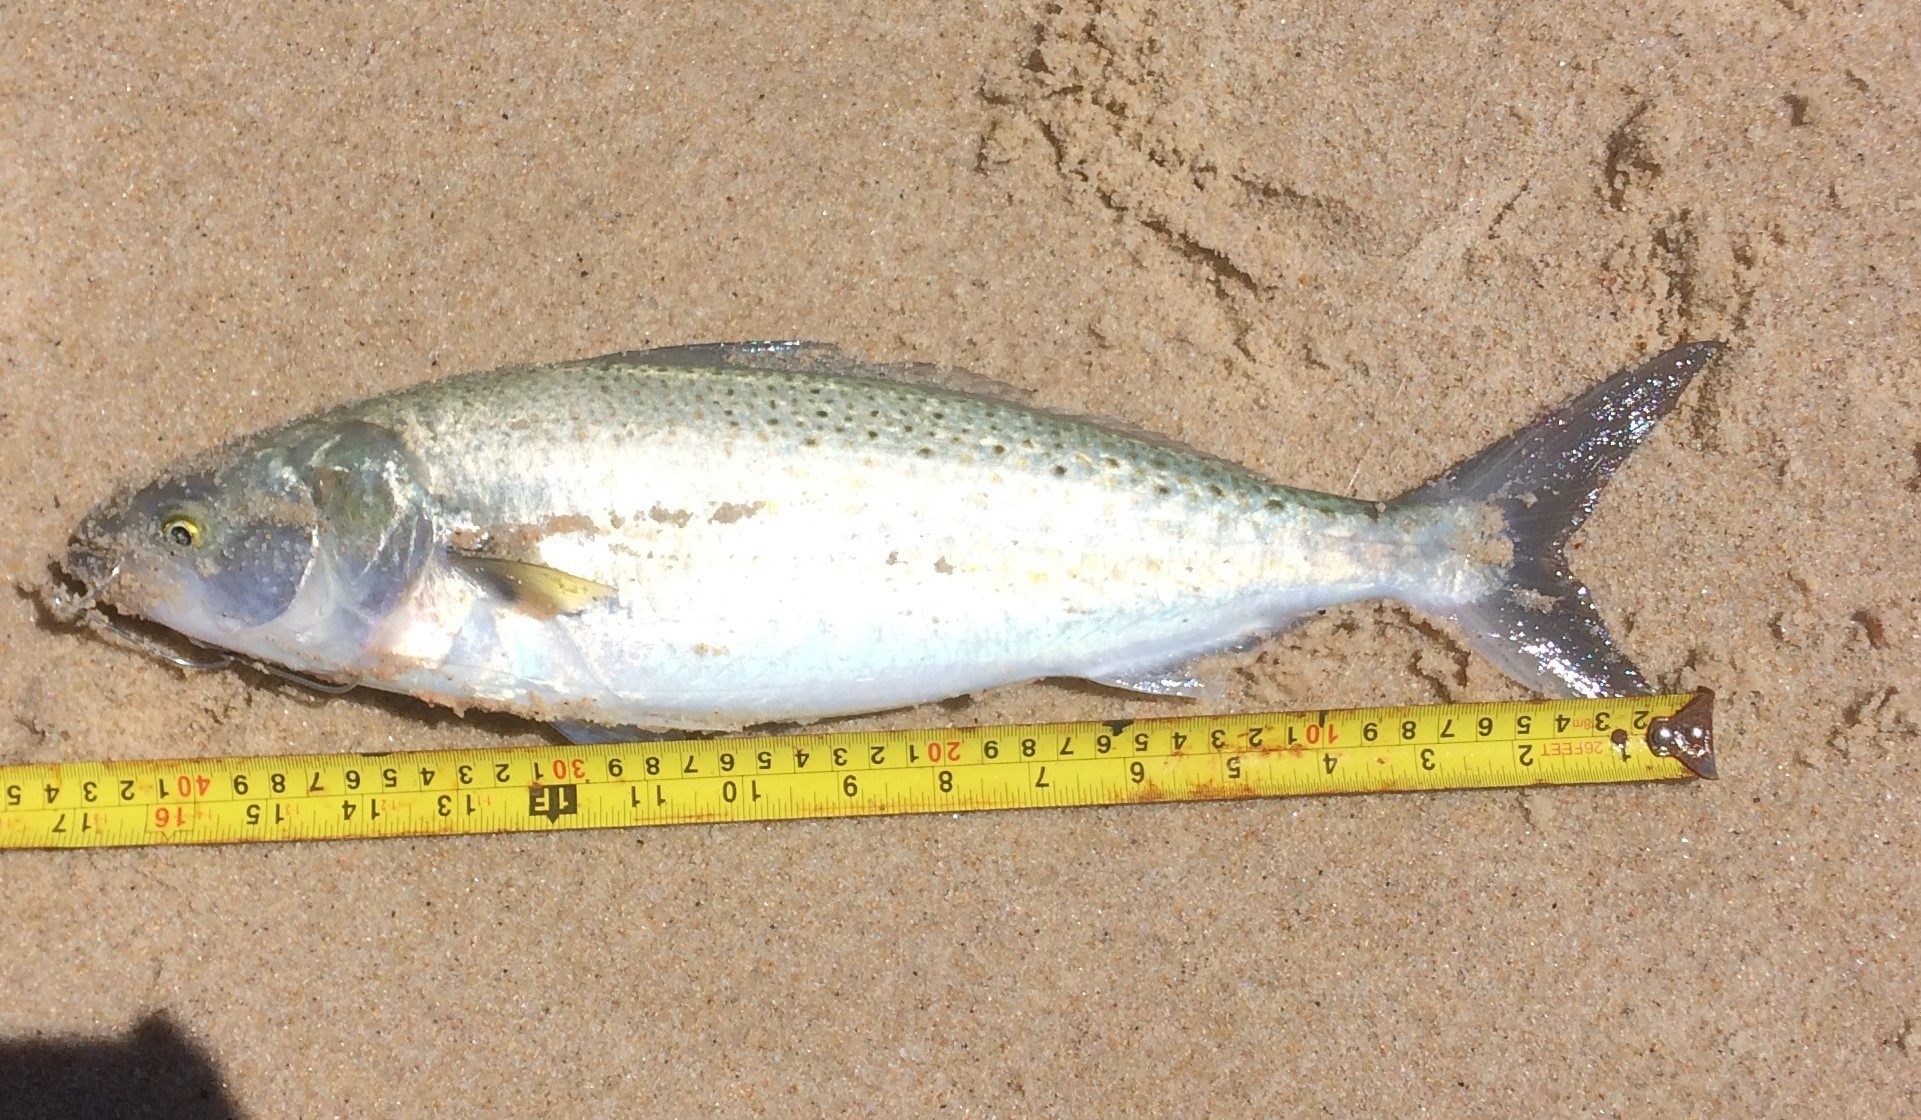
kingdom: Animalia
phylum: Chordata
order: Perciformes
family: Arripidae
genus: Arripis
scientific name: Arripis truttacea
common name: Australian salmon
